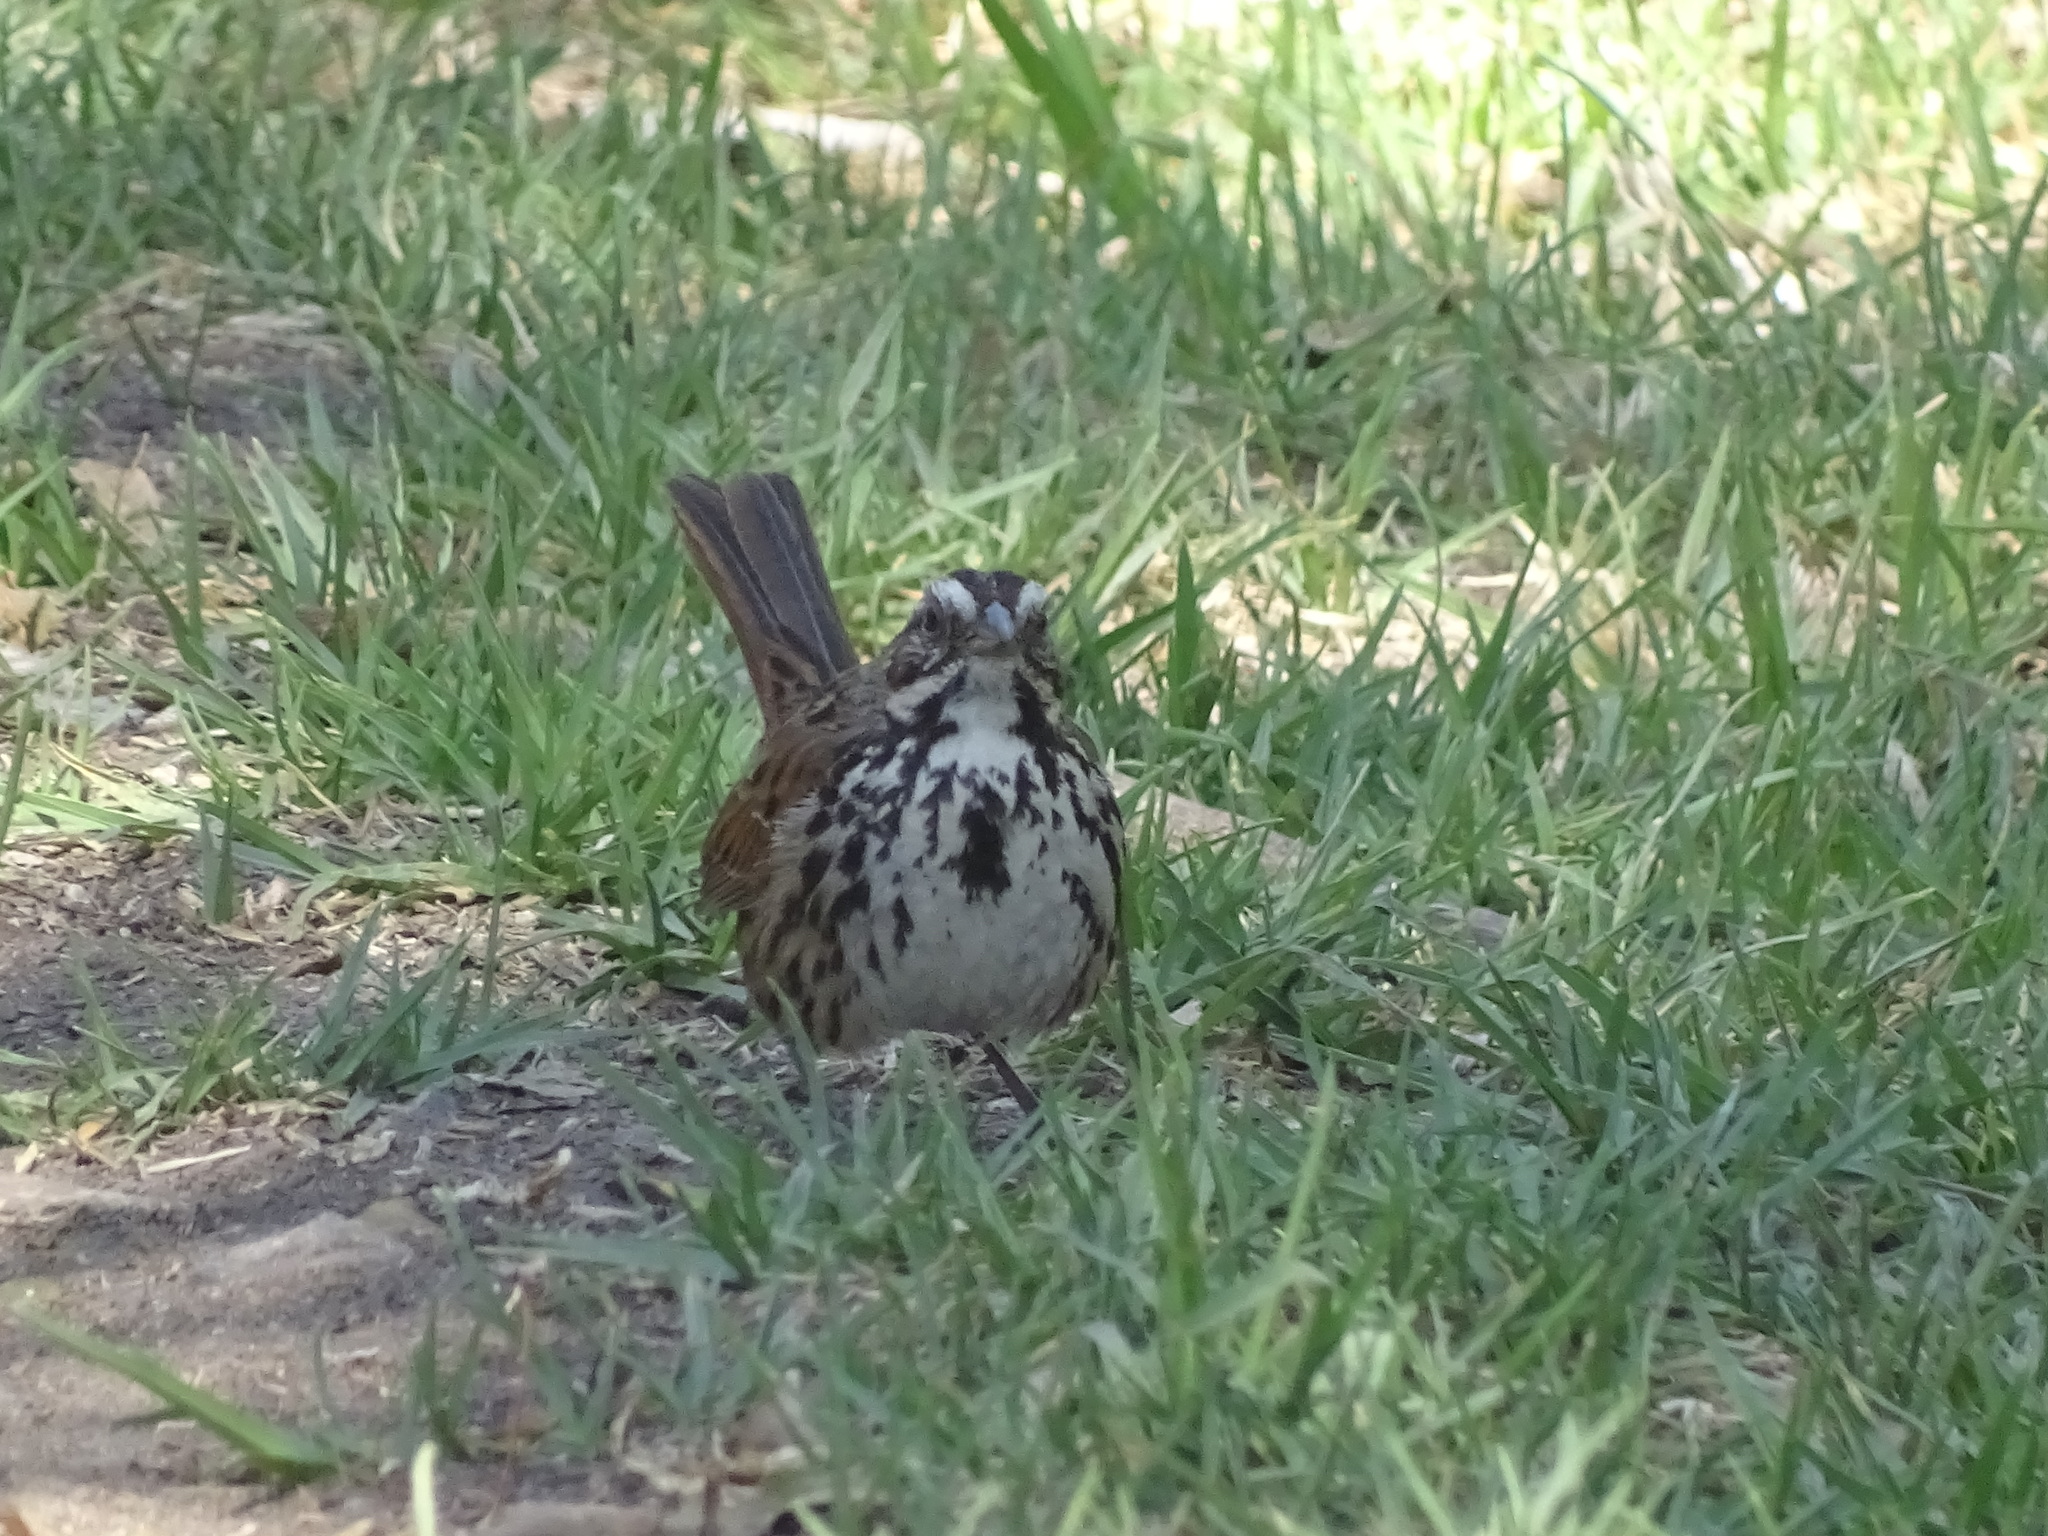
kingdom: Animalia
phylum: Chordata
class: Aves
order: Passeriformes
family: Passerellidae
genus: Melospiza
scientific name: Melospiza melodia
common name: Song sparrow
